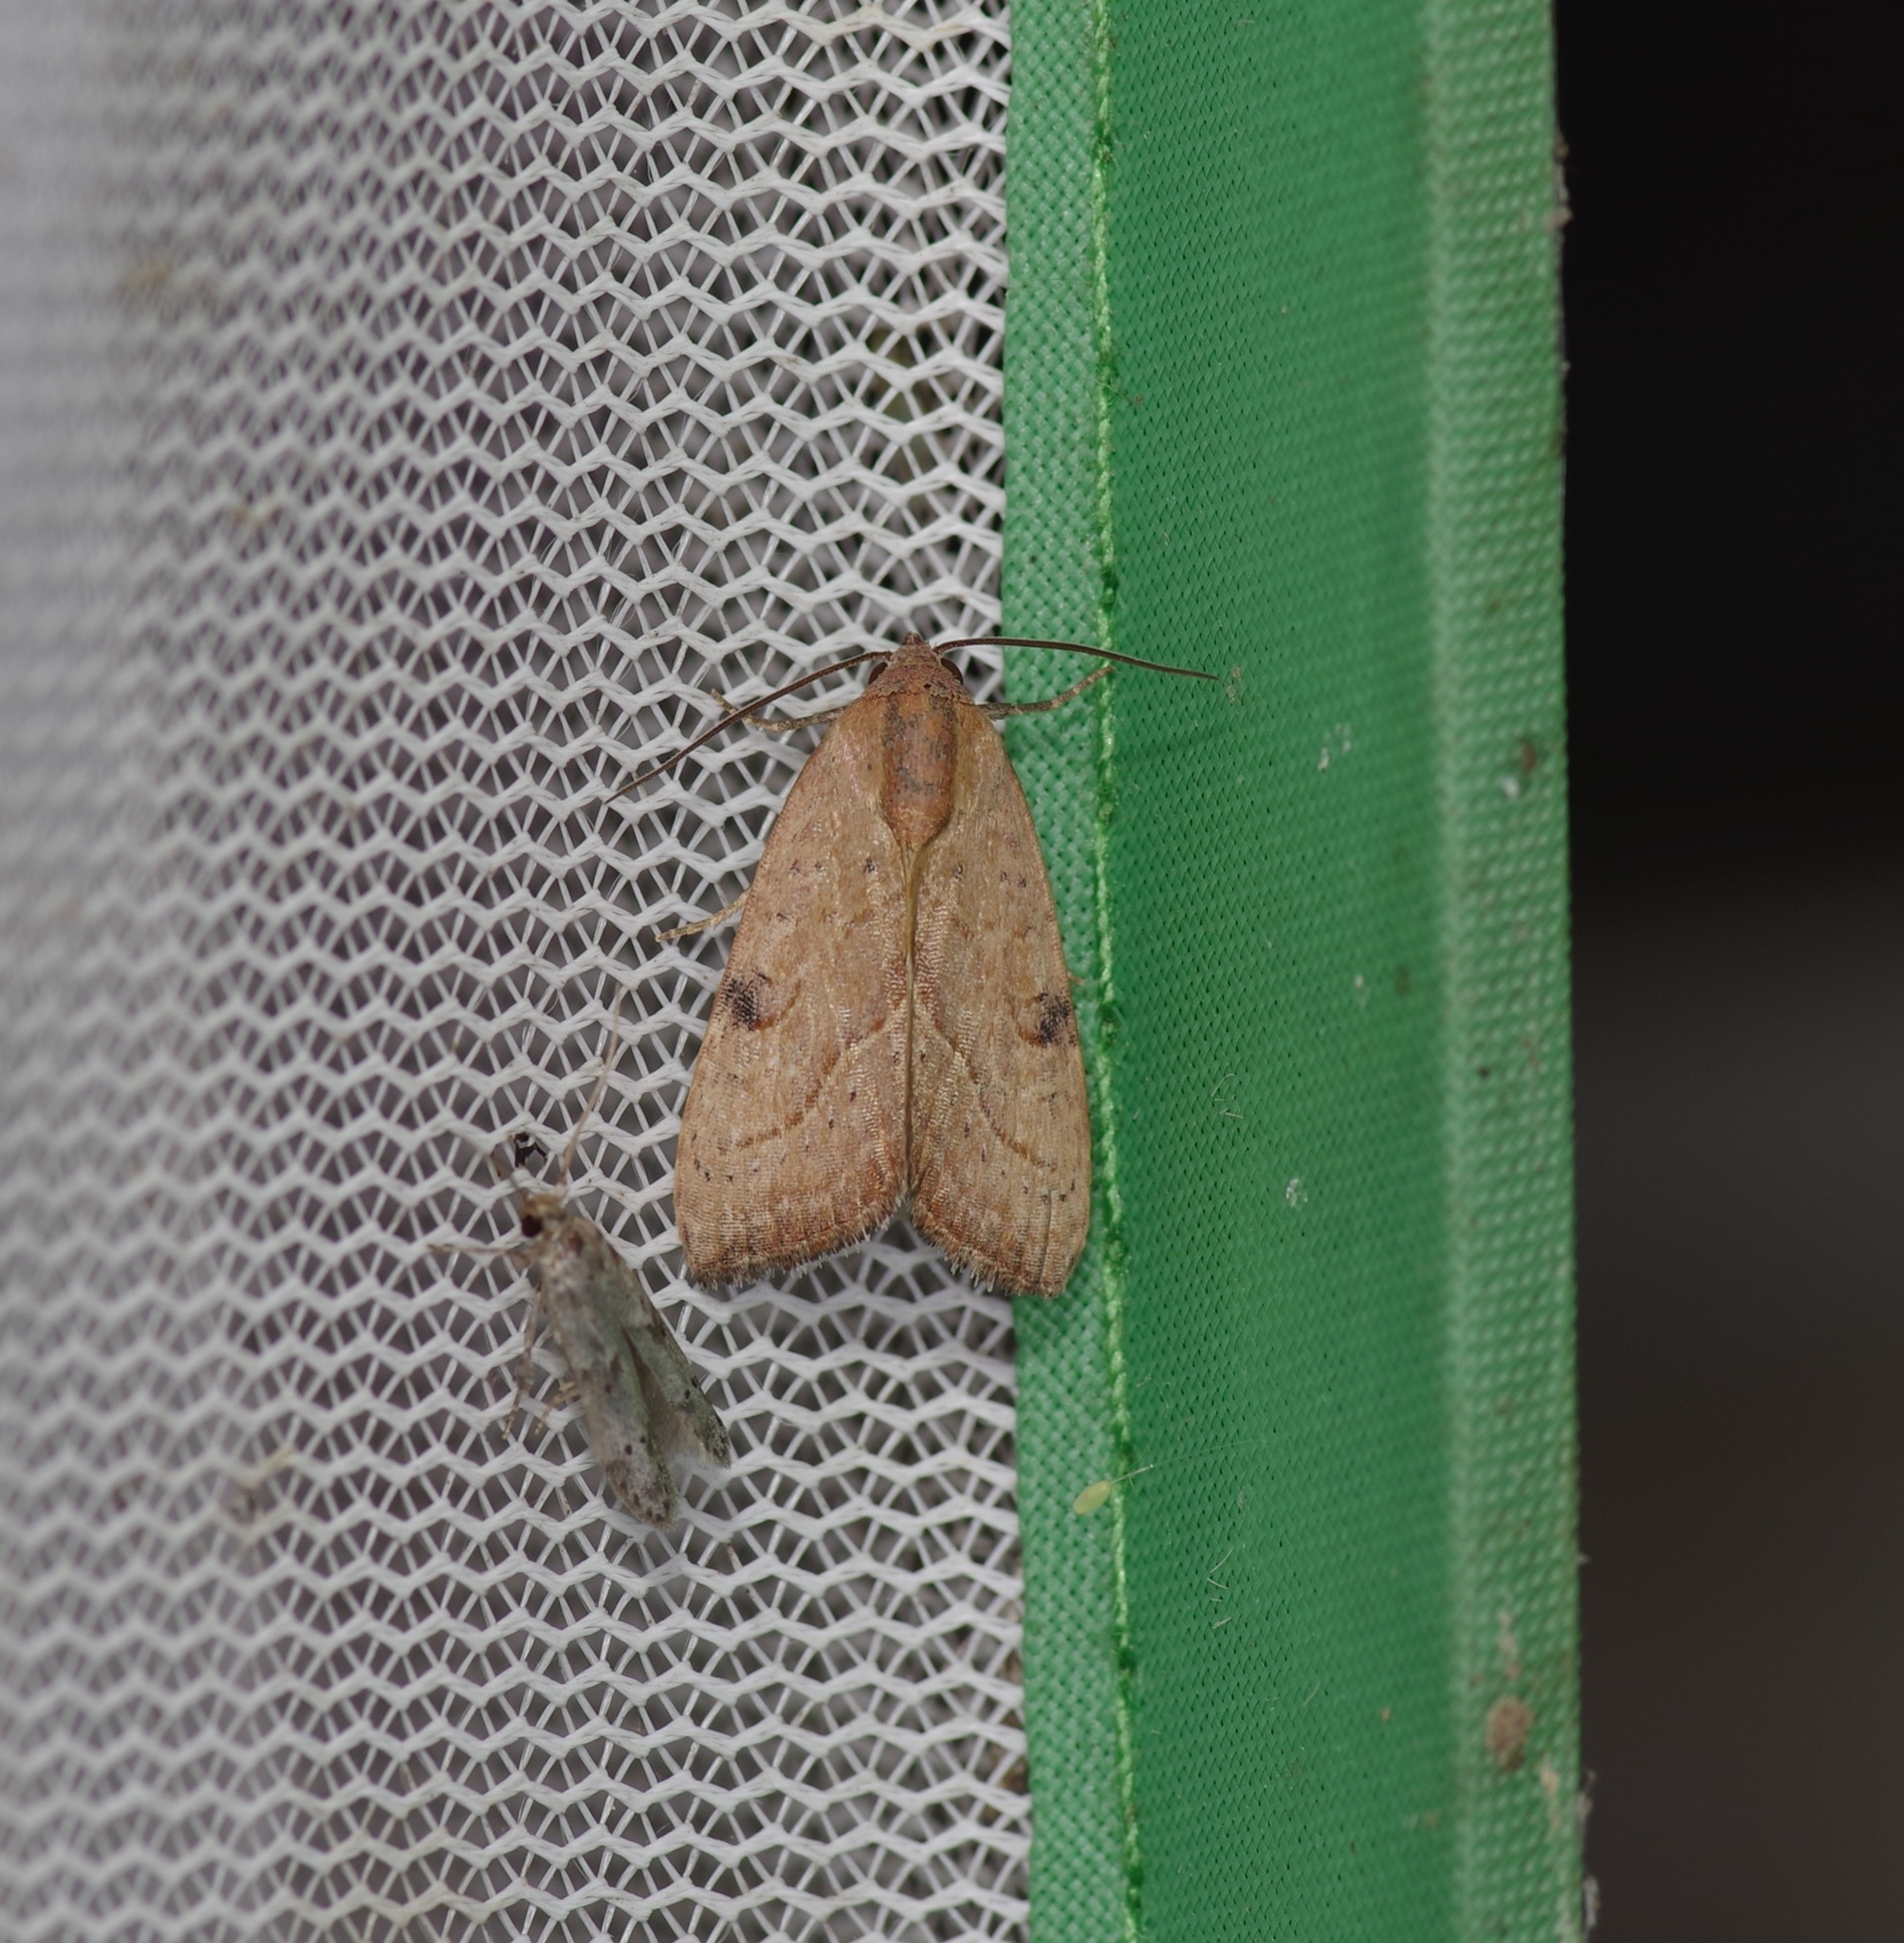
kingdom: Animalia
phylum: Arthropoda
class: Insecta
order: Lepidoptera
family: Noctuidae
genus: Galgula
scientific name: Galgula partita
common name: Wedgeling
